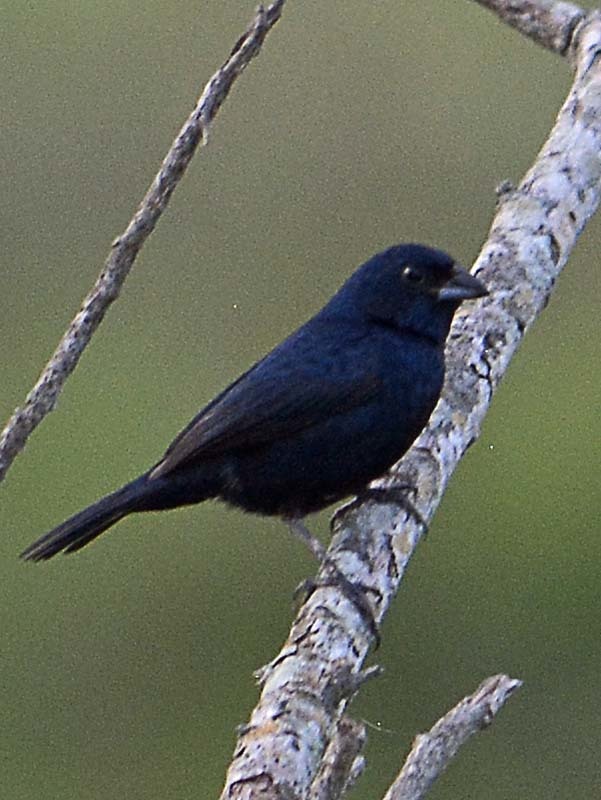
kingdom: Animalia
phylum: Chordata
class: Aves
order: Passeriformes
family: Thraupidae
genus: Volatinia
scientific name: Volatinia jacarina
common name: Blue-black grassquit
